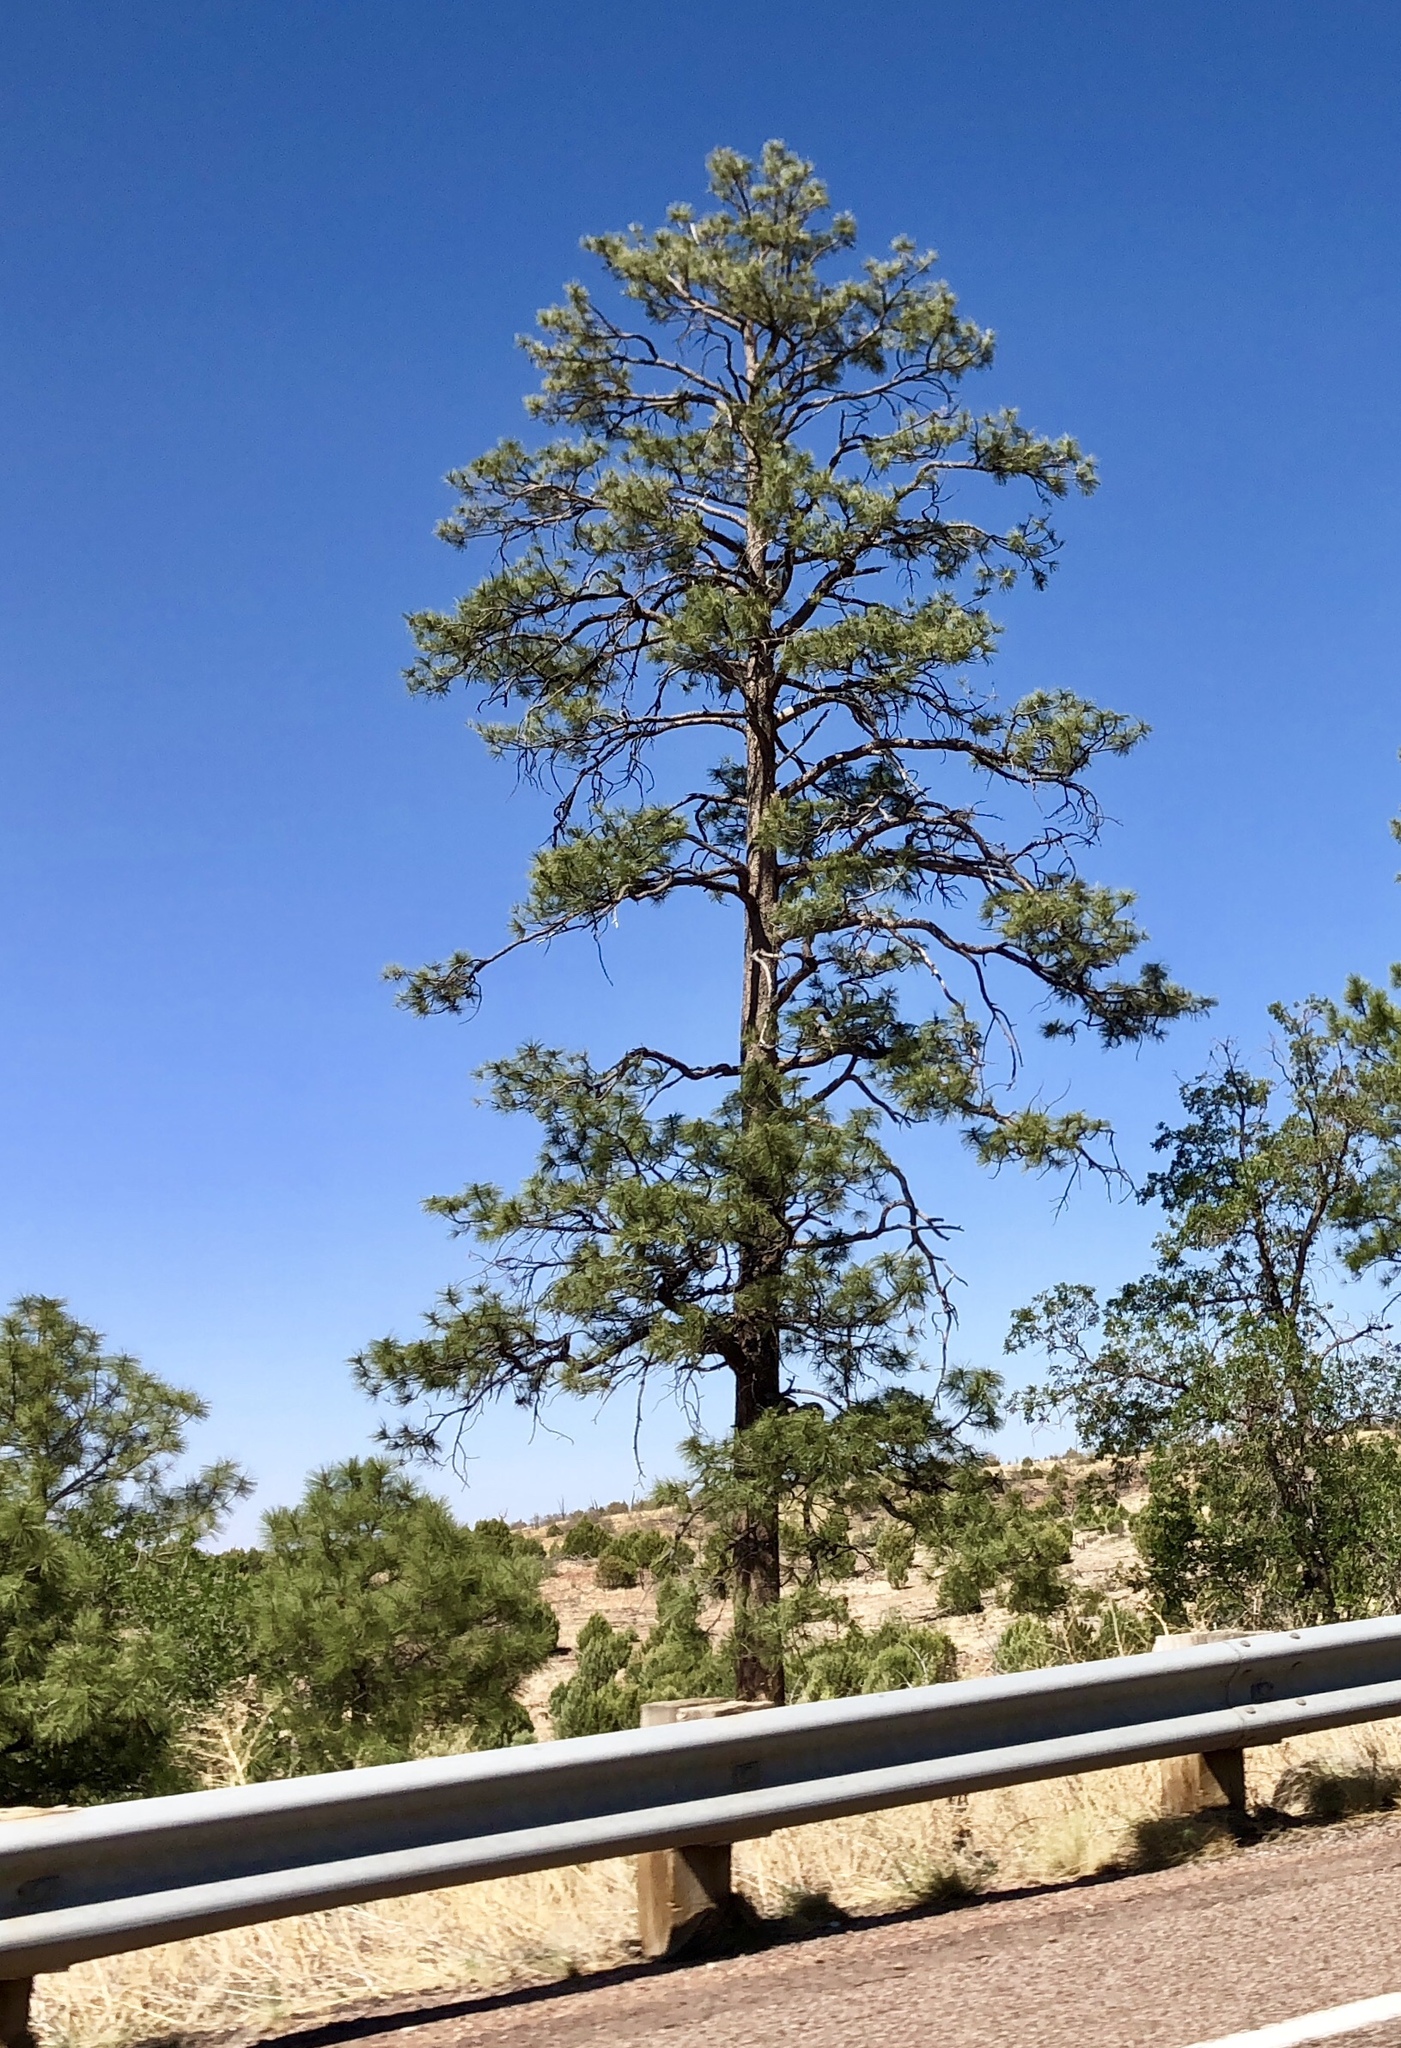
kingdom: Plantae
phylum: Tracheophyta
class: Pinopsida
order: Pinales
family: Pinaceae
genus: Pinus
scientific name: Pinus ponderosa
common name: Western yellow-pine
